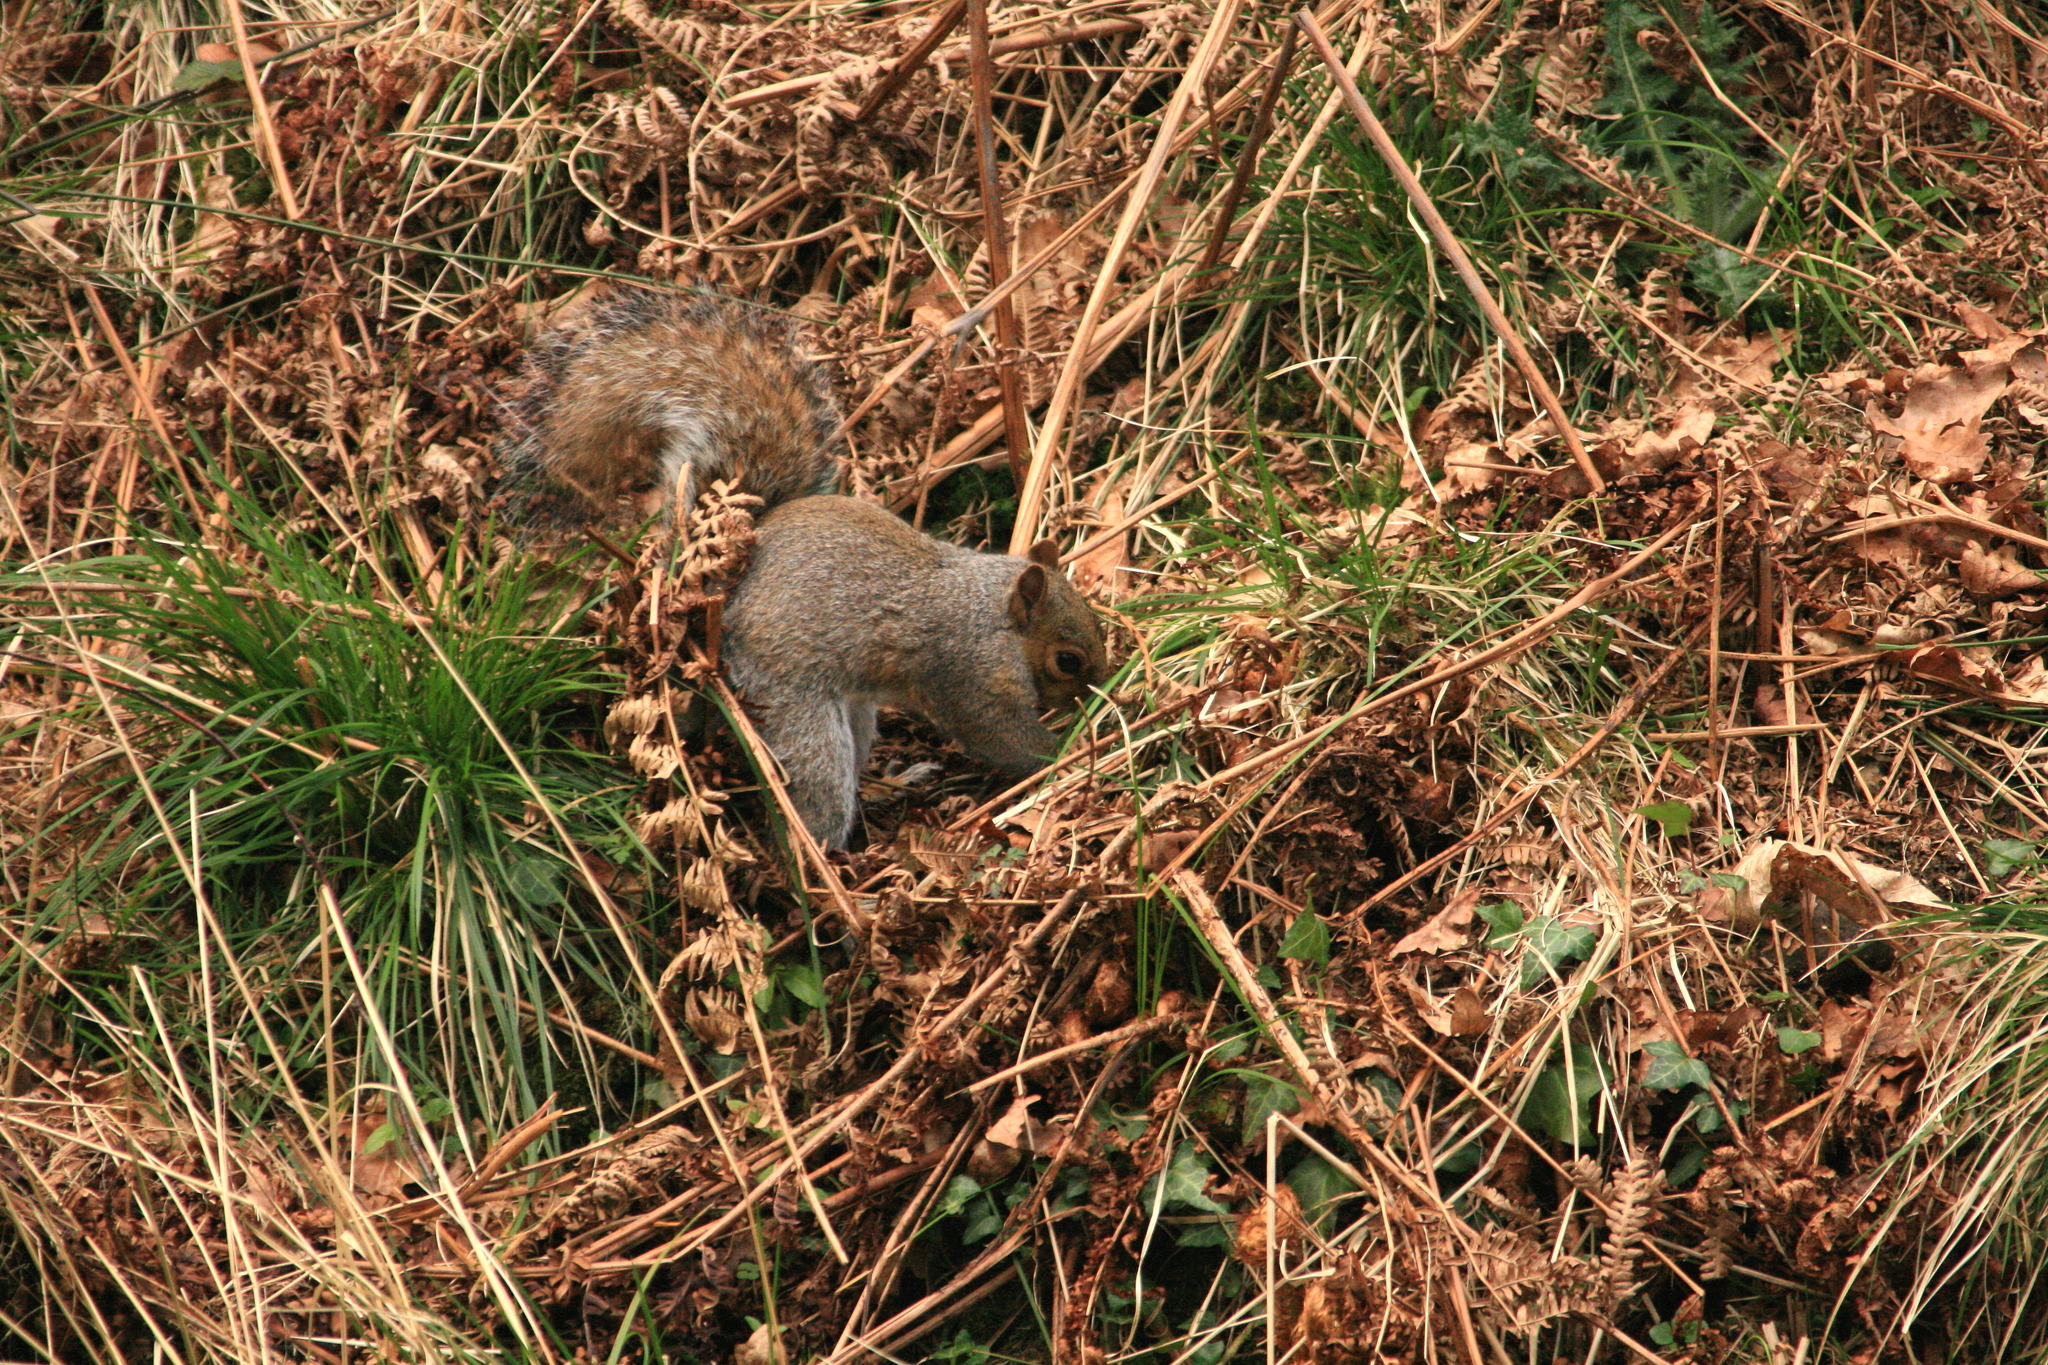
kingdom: Animalia
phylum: Chordata
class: Mammalia
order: Rodentia
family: Sciuridae
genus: Sciurus
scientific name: Sciurus carolinensis
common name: Eastern gray squirrel
